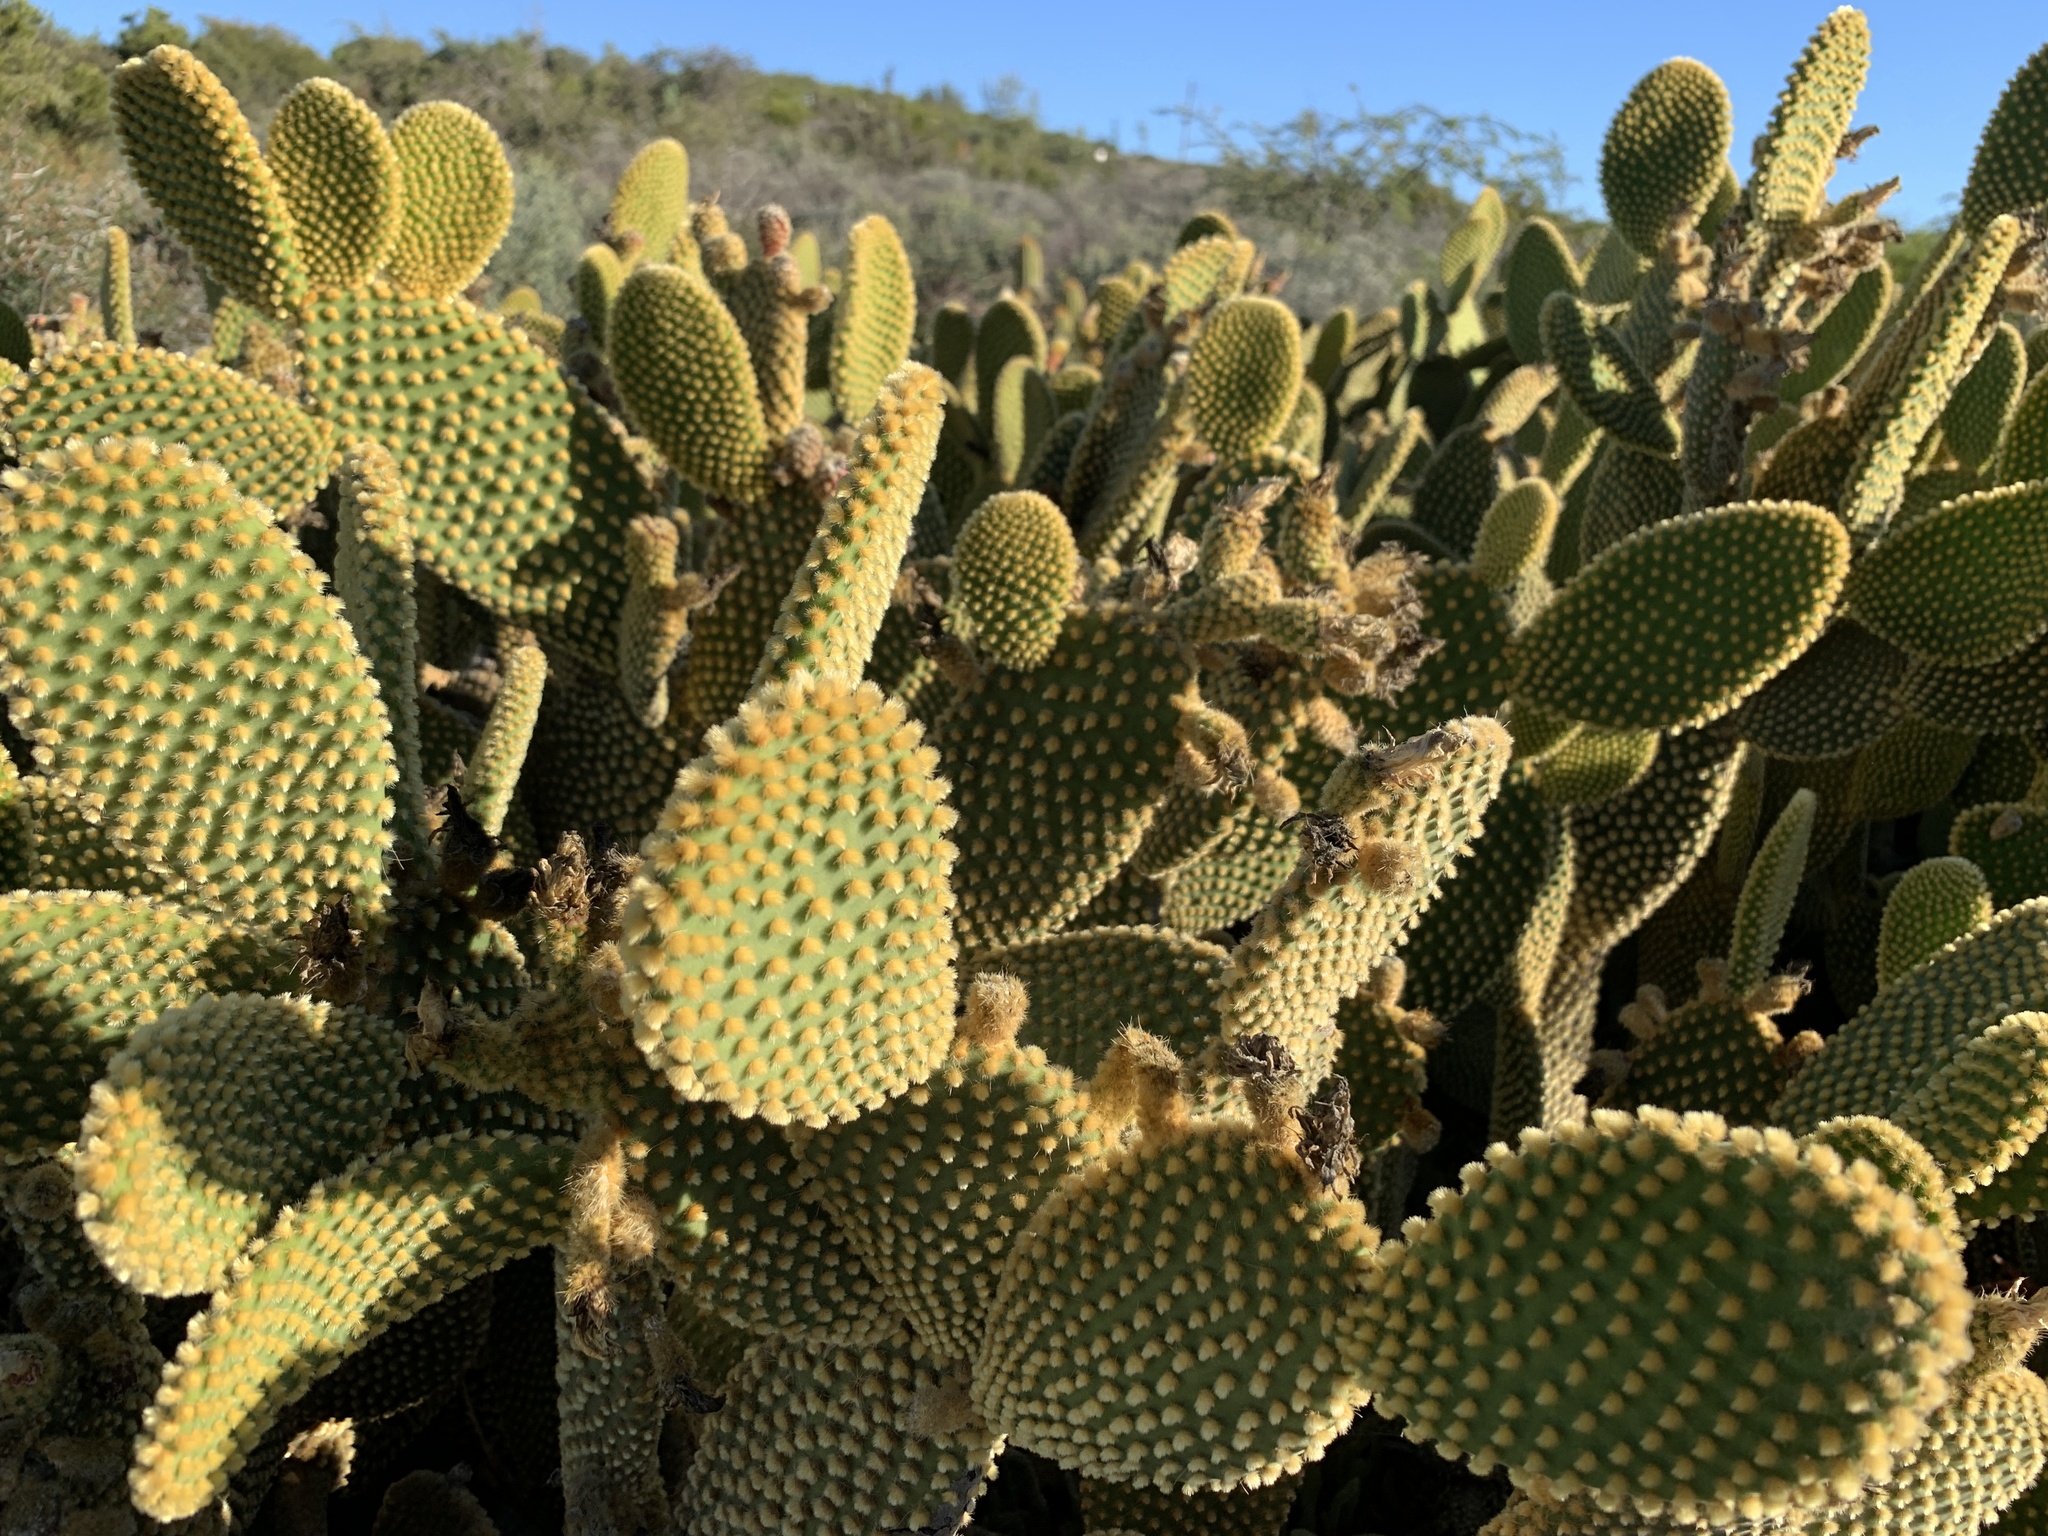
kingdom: Plantae
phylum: Tracheophyta
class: Magnoliopsida
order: Caryophyllales
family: Cactaceae
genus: Opuntia
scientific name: Opuntia microdasys
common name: Angel's-wings
